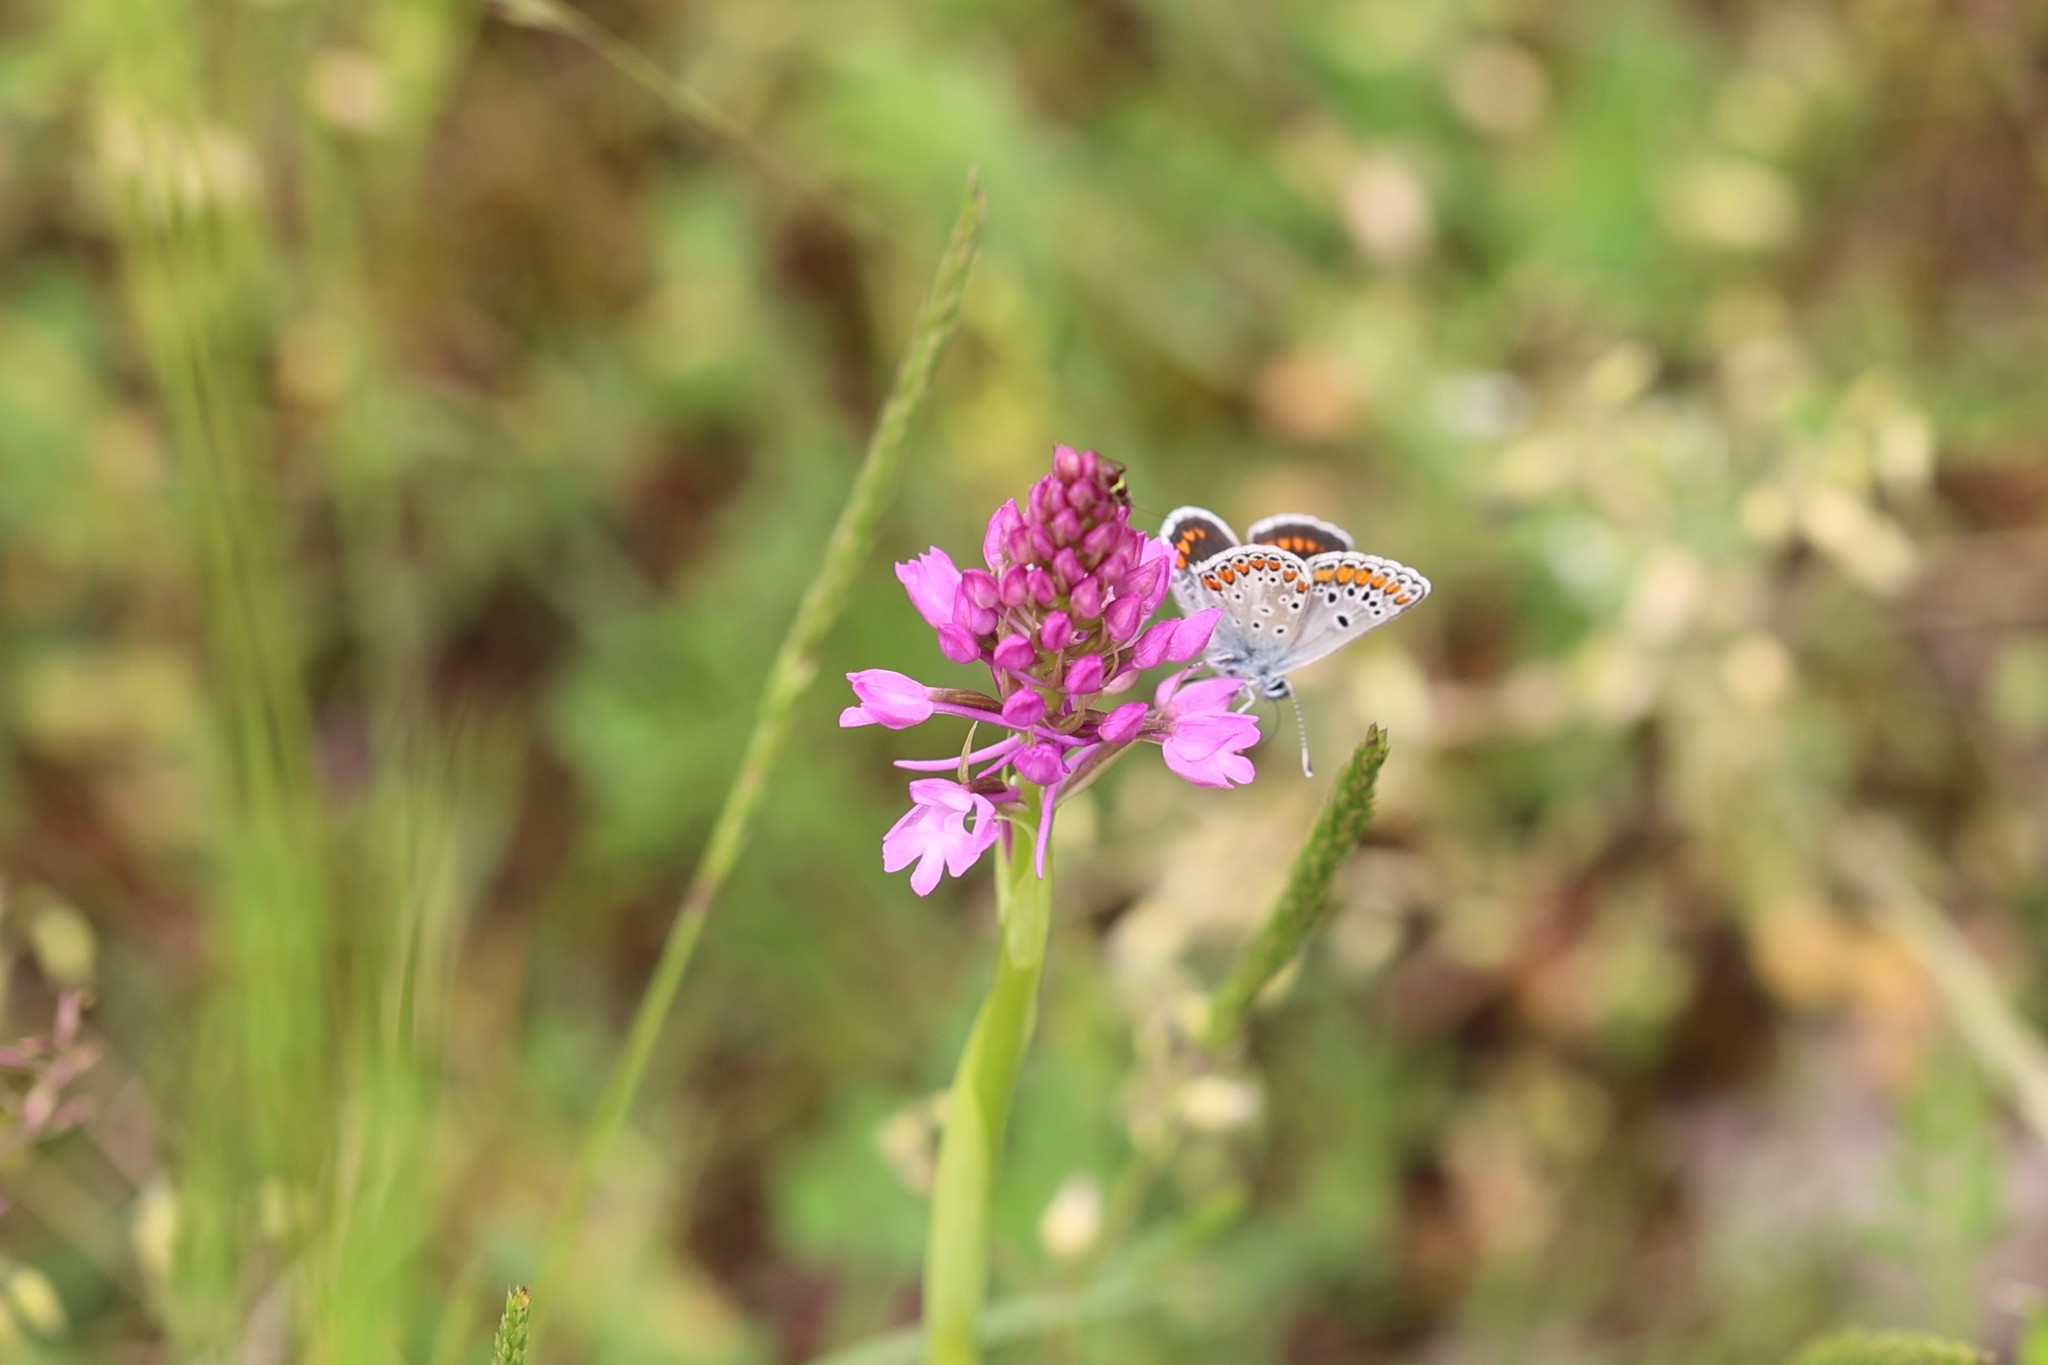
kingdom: Animalia
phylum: Arthropoda
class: Insecta
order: Lepidoptera
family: Lycaenidae
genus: Aricia
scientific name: Aricia agestis
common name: Brown argus
